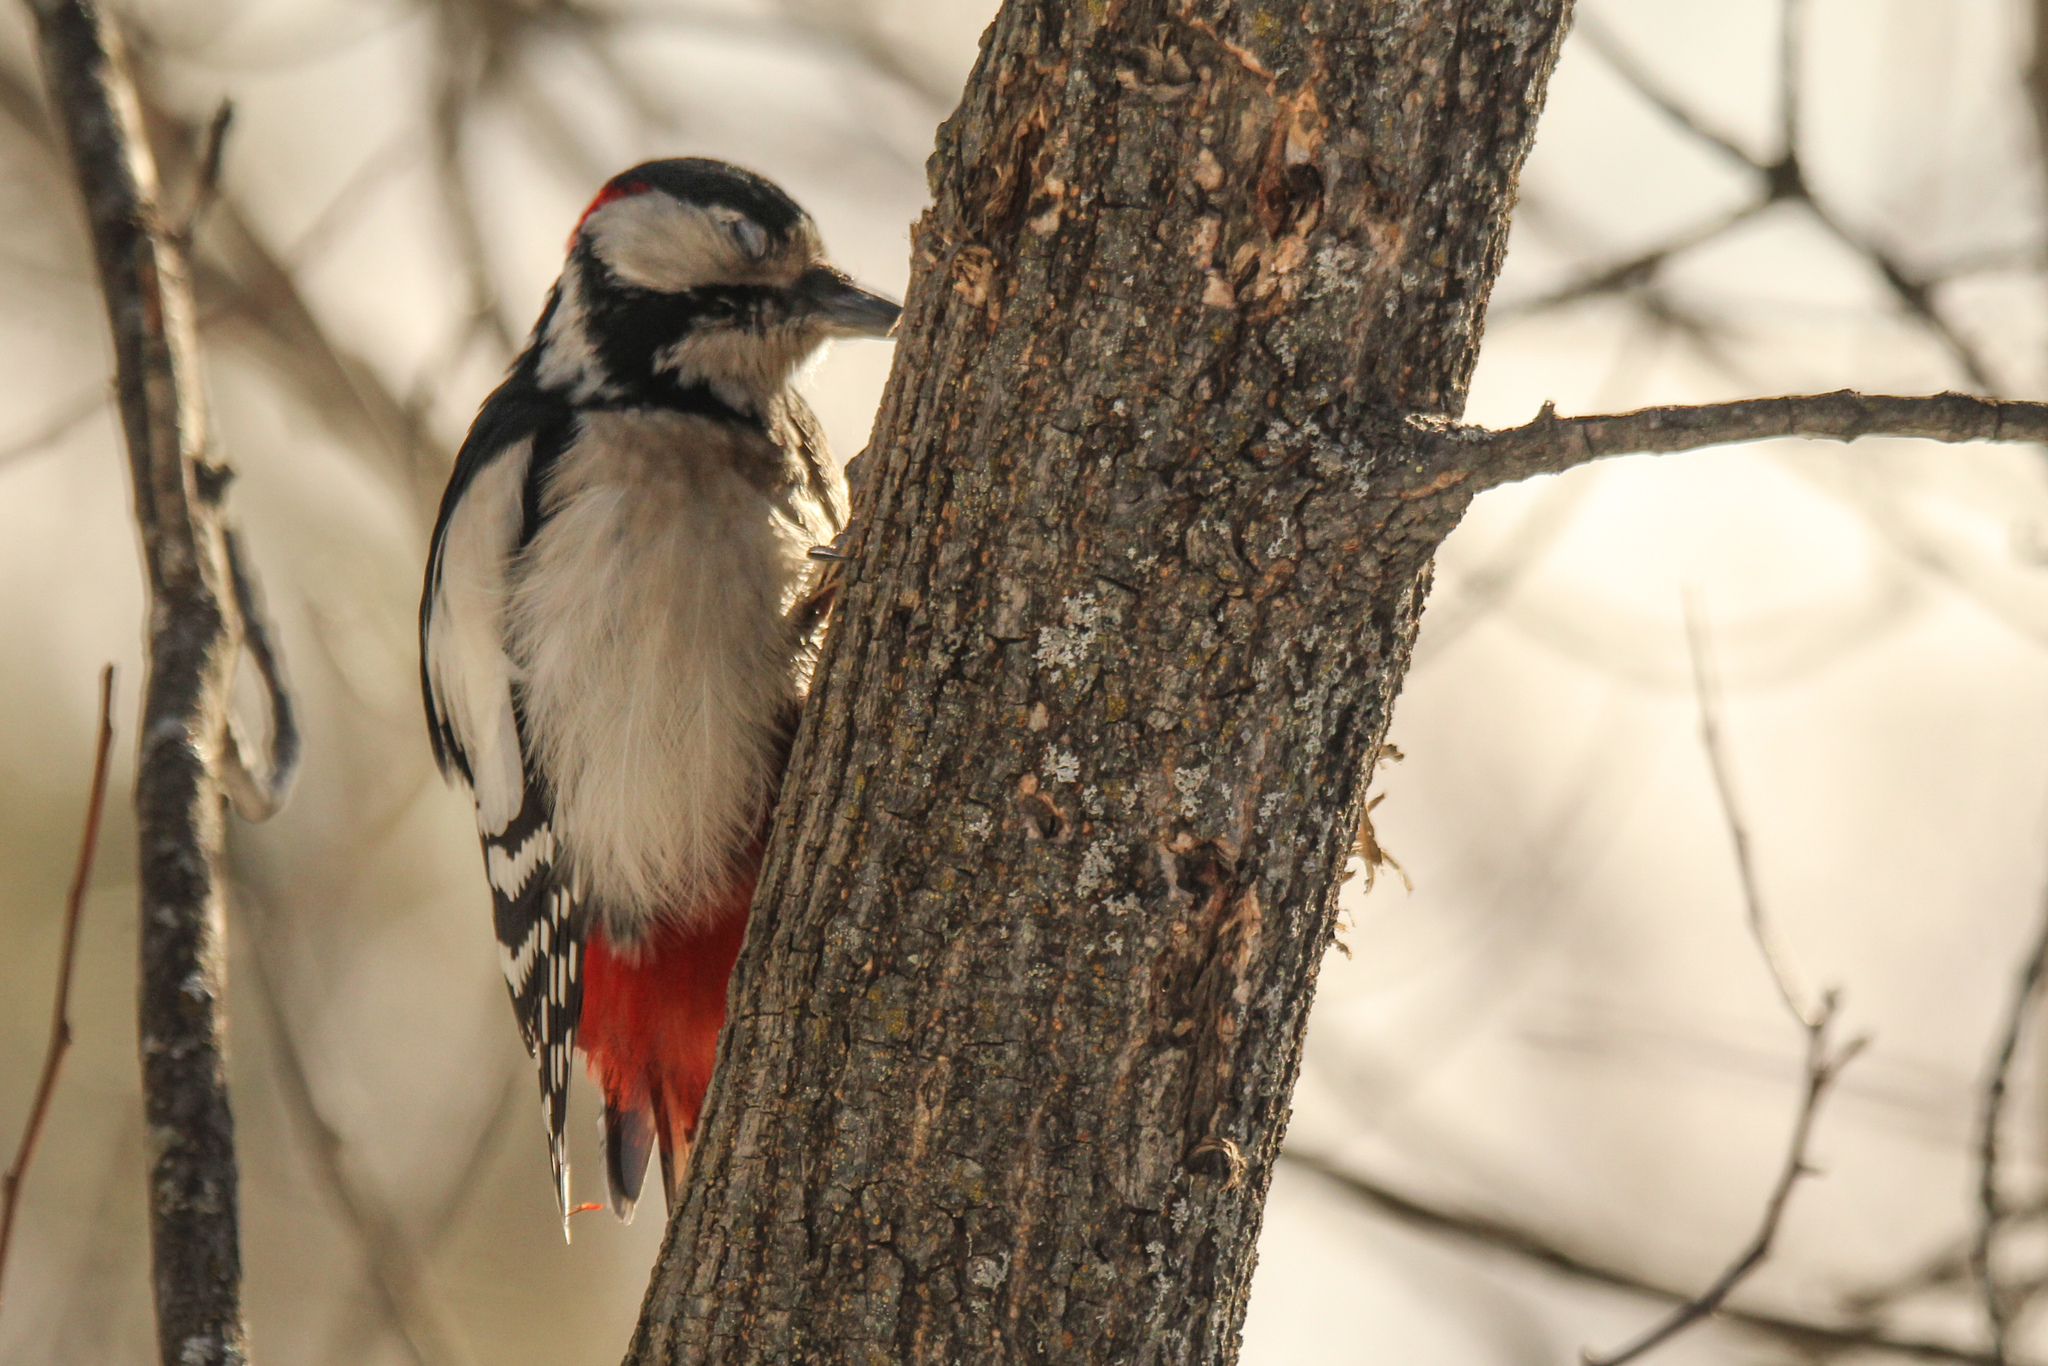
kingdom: Animalia
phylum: Chordata
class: Aves
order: Piciformes
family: Picidae
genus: Dendrocopos
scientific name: Dendrocopos major
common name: Great spotted woodpecker
